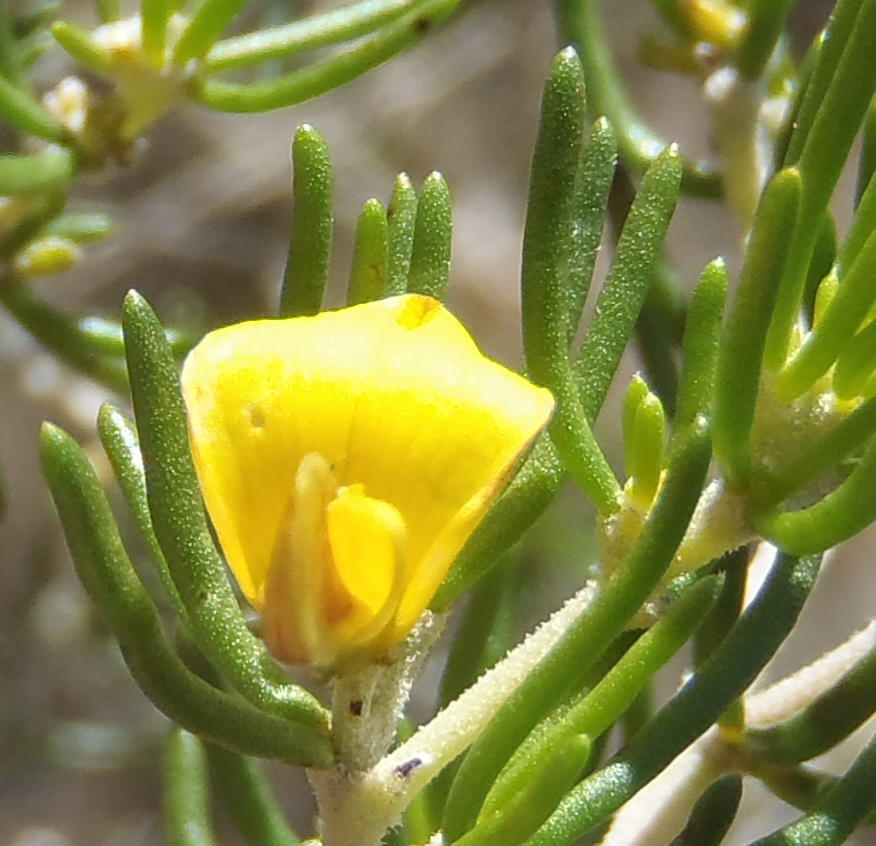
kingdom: Plantae
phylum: Tracheophyta
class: Magnoliopsida
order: Fabales
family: Fabaceae
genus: Aspalathus
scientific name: Aspalathus subtingens
